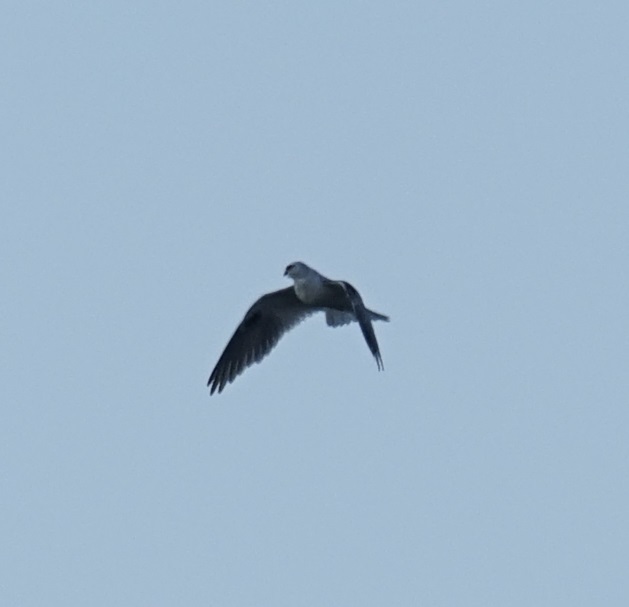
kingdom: Animalia
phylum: Chordata
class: Aves
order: Accipitriformes
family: Accipitridae
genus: Elanus
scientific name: Elanus axillaris
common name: Black-shouldered kite
